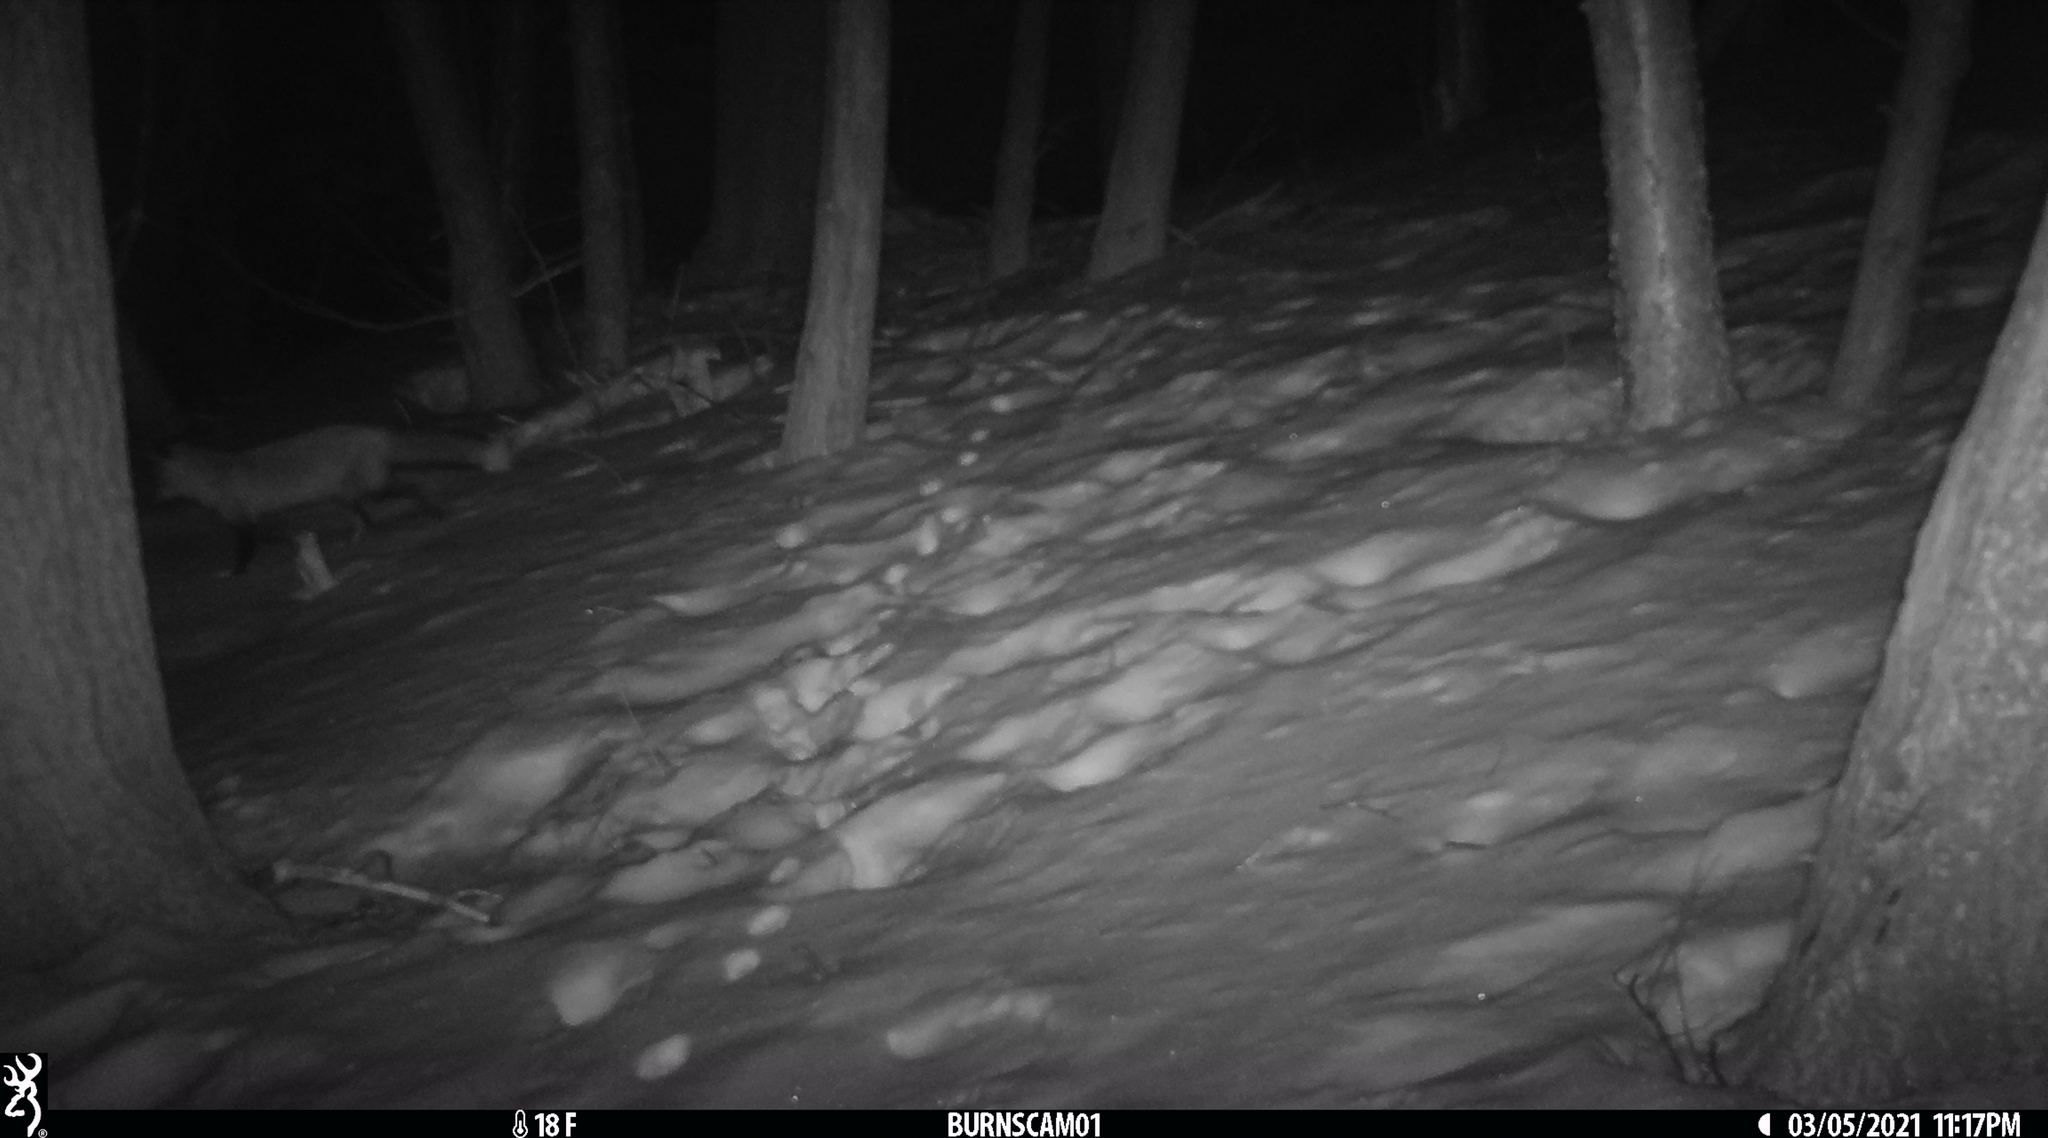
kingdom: Animalia
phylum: Chordata
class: Mammalia
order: Carnivora
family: Canidae
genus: Vulpes
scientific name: Vulpes vulpes
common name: Red fox
